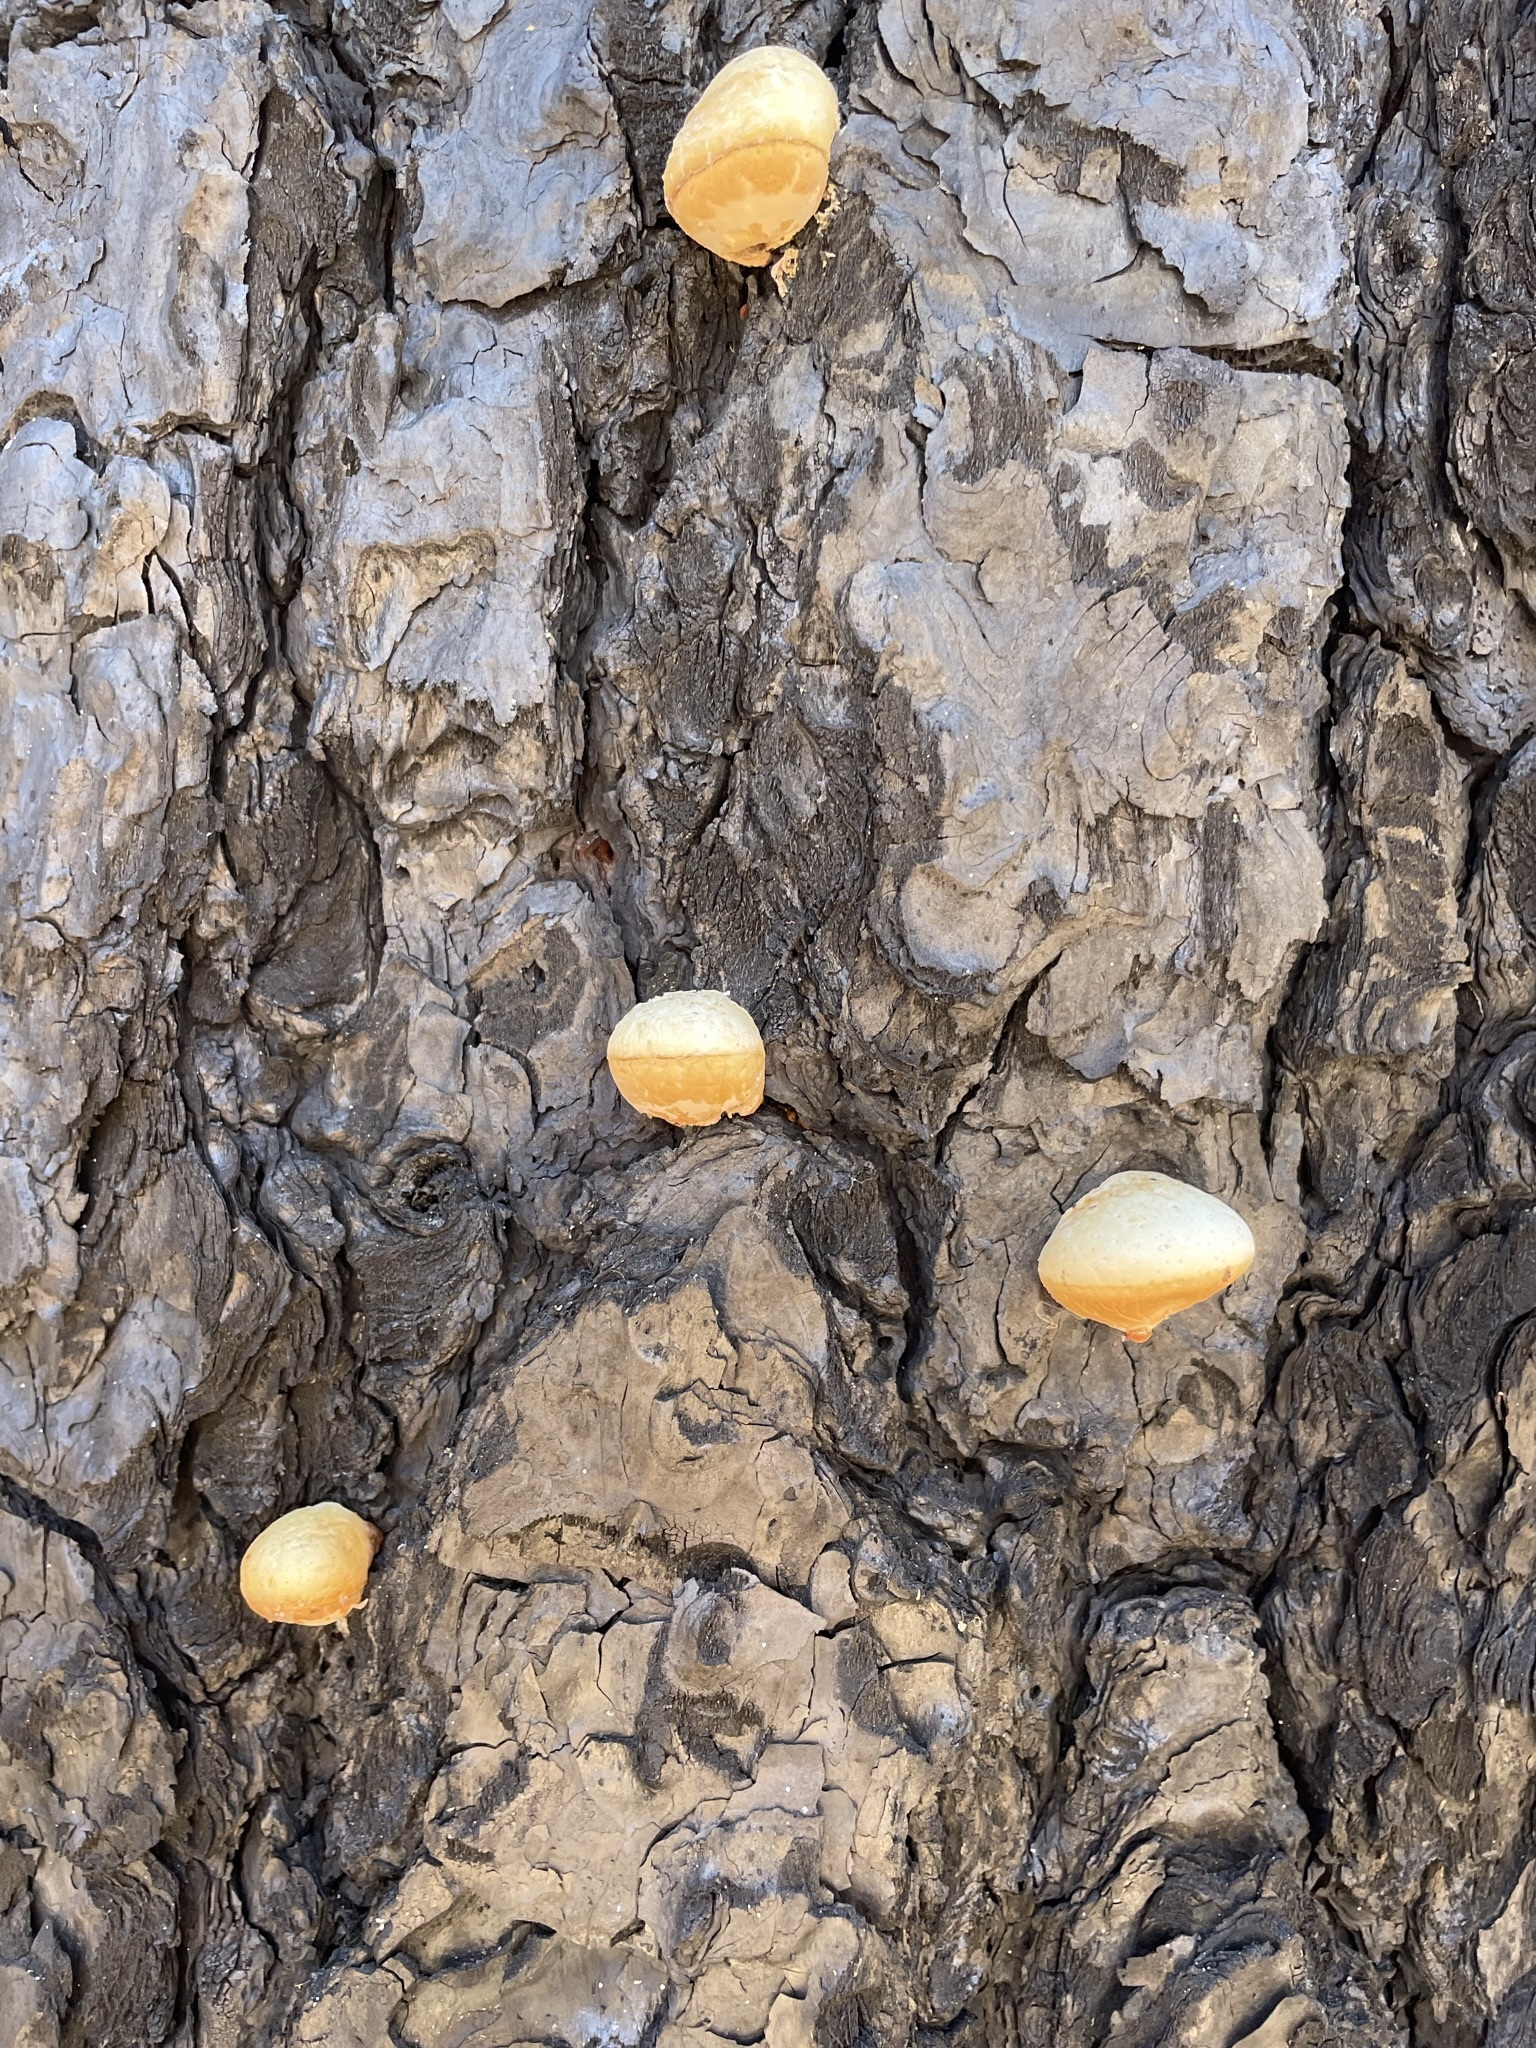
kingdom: Fungi
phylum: Basidiomycota
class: Agaricomycetes
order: Polyporales
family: Polyporaceae
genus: Cryptoporus
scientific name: Cryptoporus volvatus
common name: Veiled polypore
